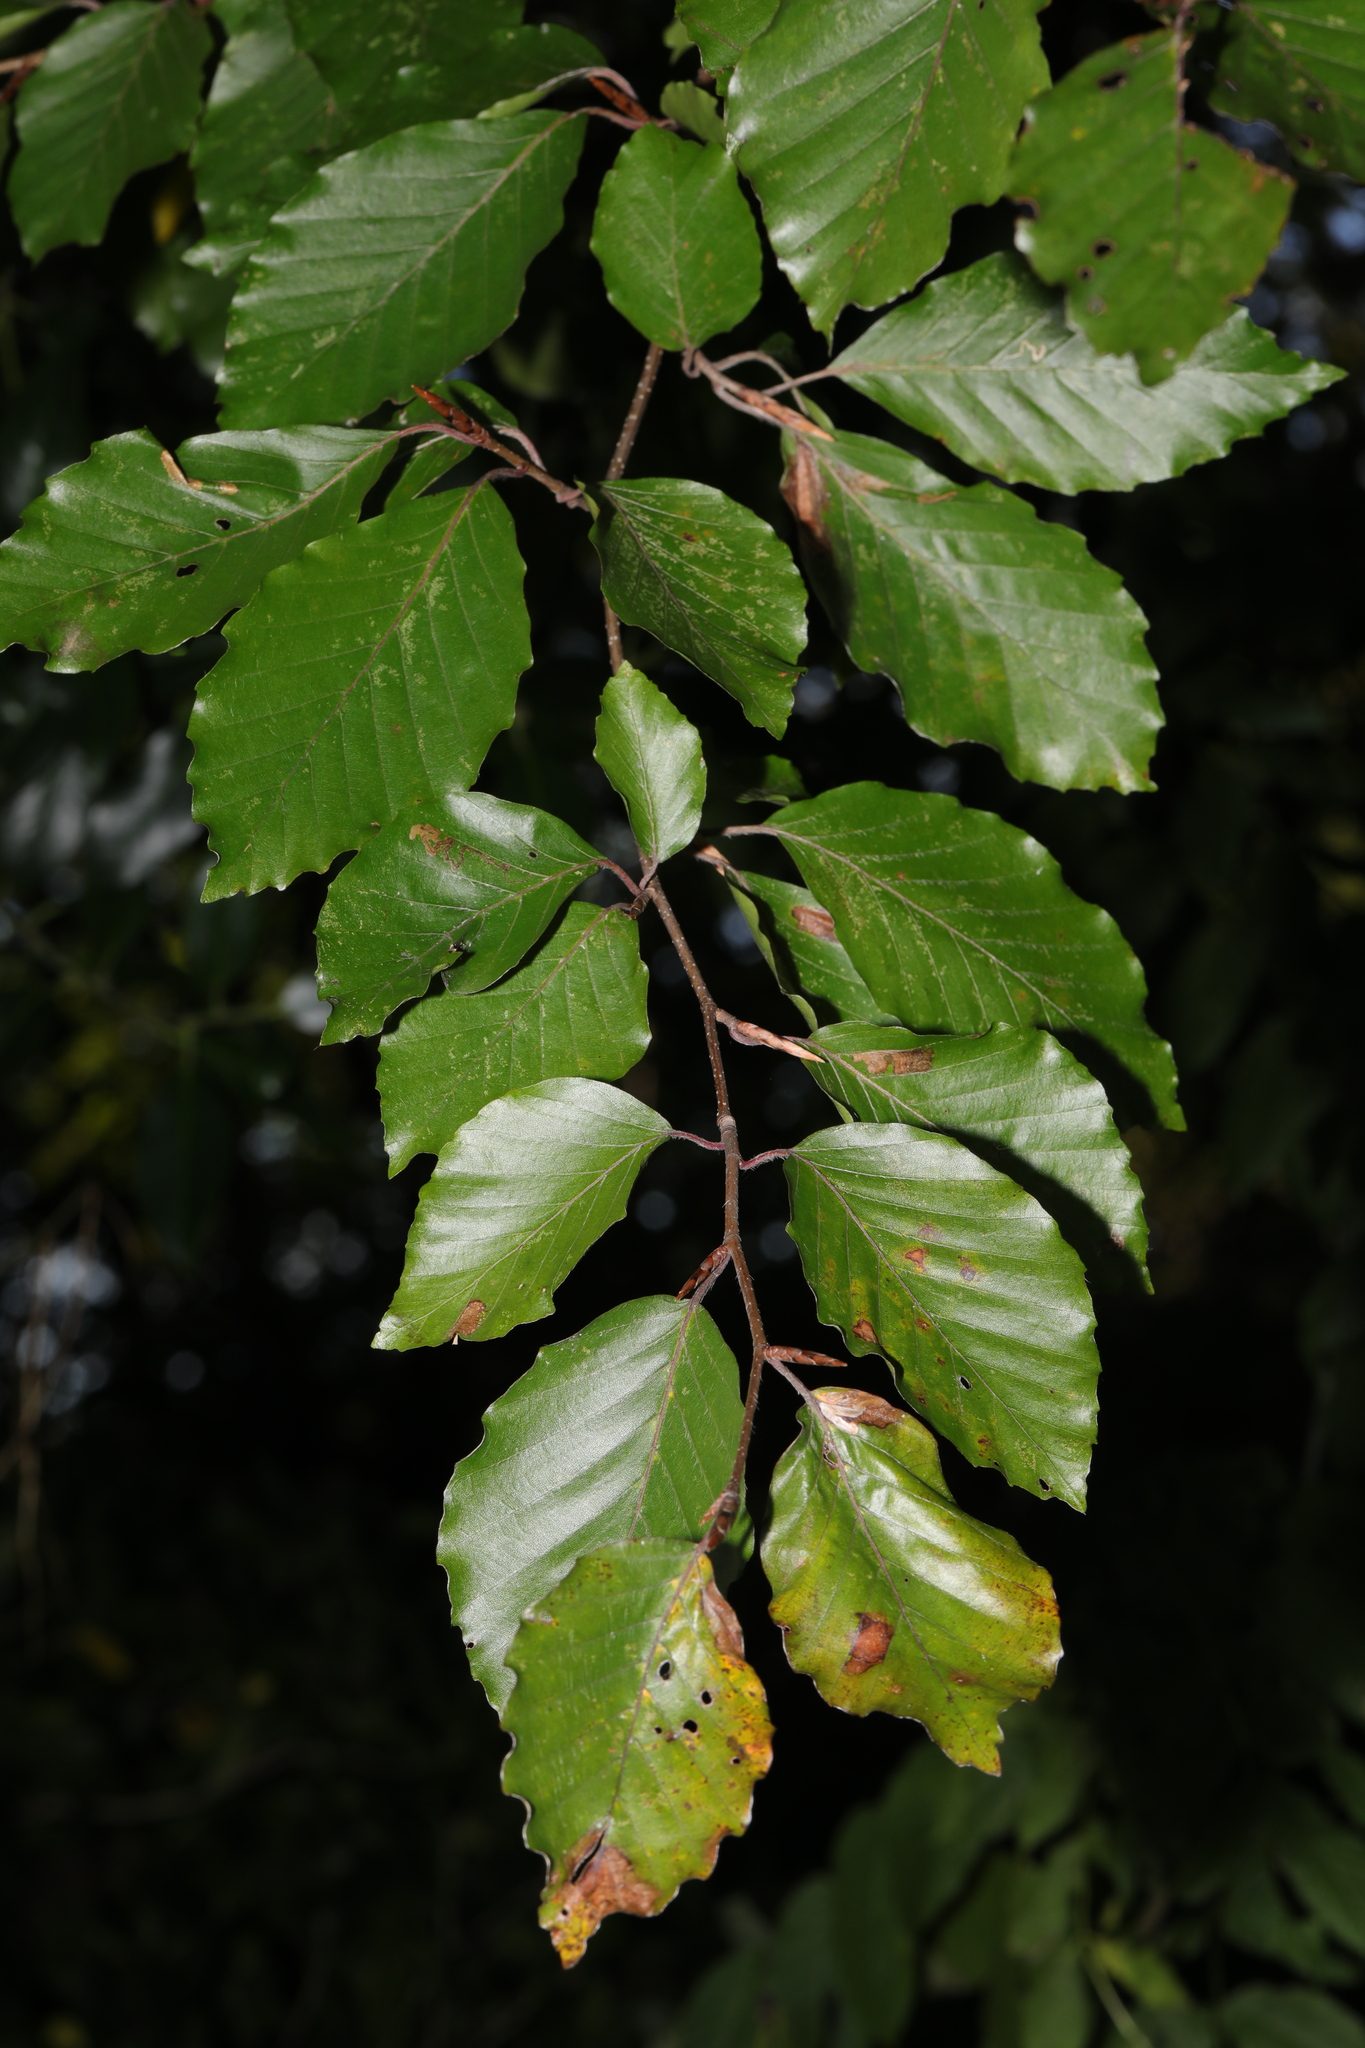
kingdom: Plantae
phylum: Tracheophyta
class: Magnoliopsida
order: Fagales
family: Fagaceae
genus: Fagus
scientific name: Fagus sylvatica
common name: Beech
